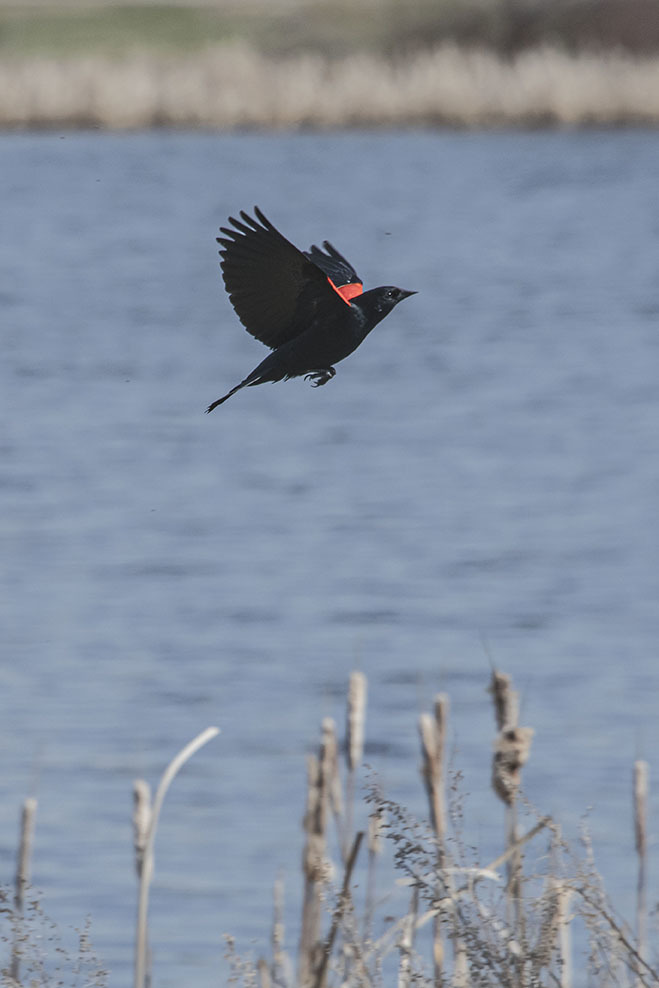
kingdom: Animalia
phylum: Chordata
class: Aves
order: Passeriformes
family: Icteridae
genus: Agelaius
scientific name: Agelaius phoeniceus
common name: Red-winged blackbird
